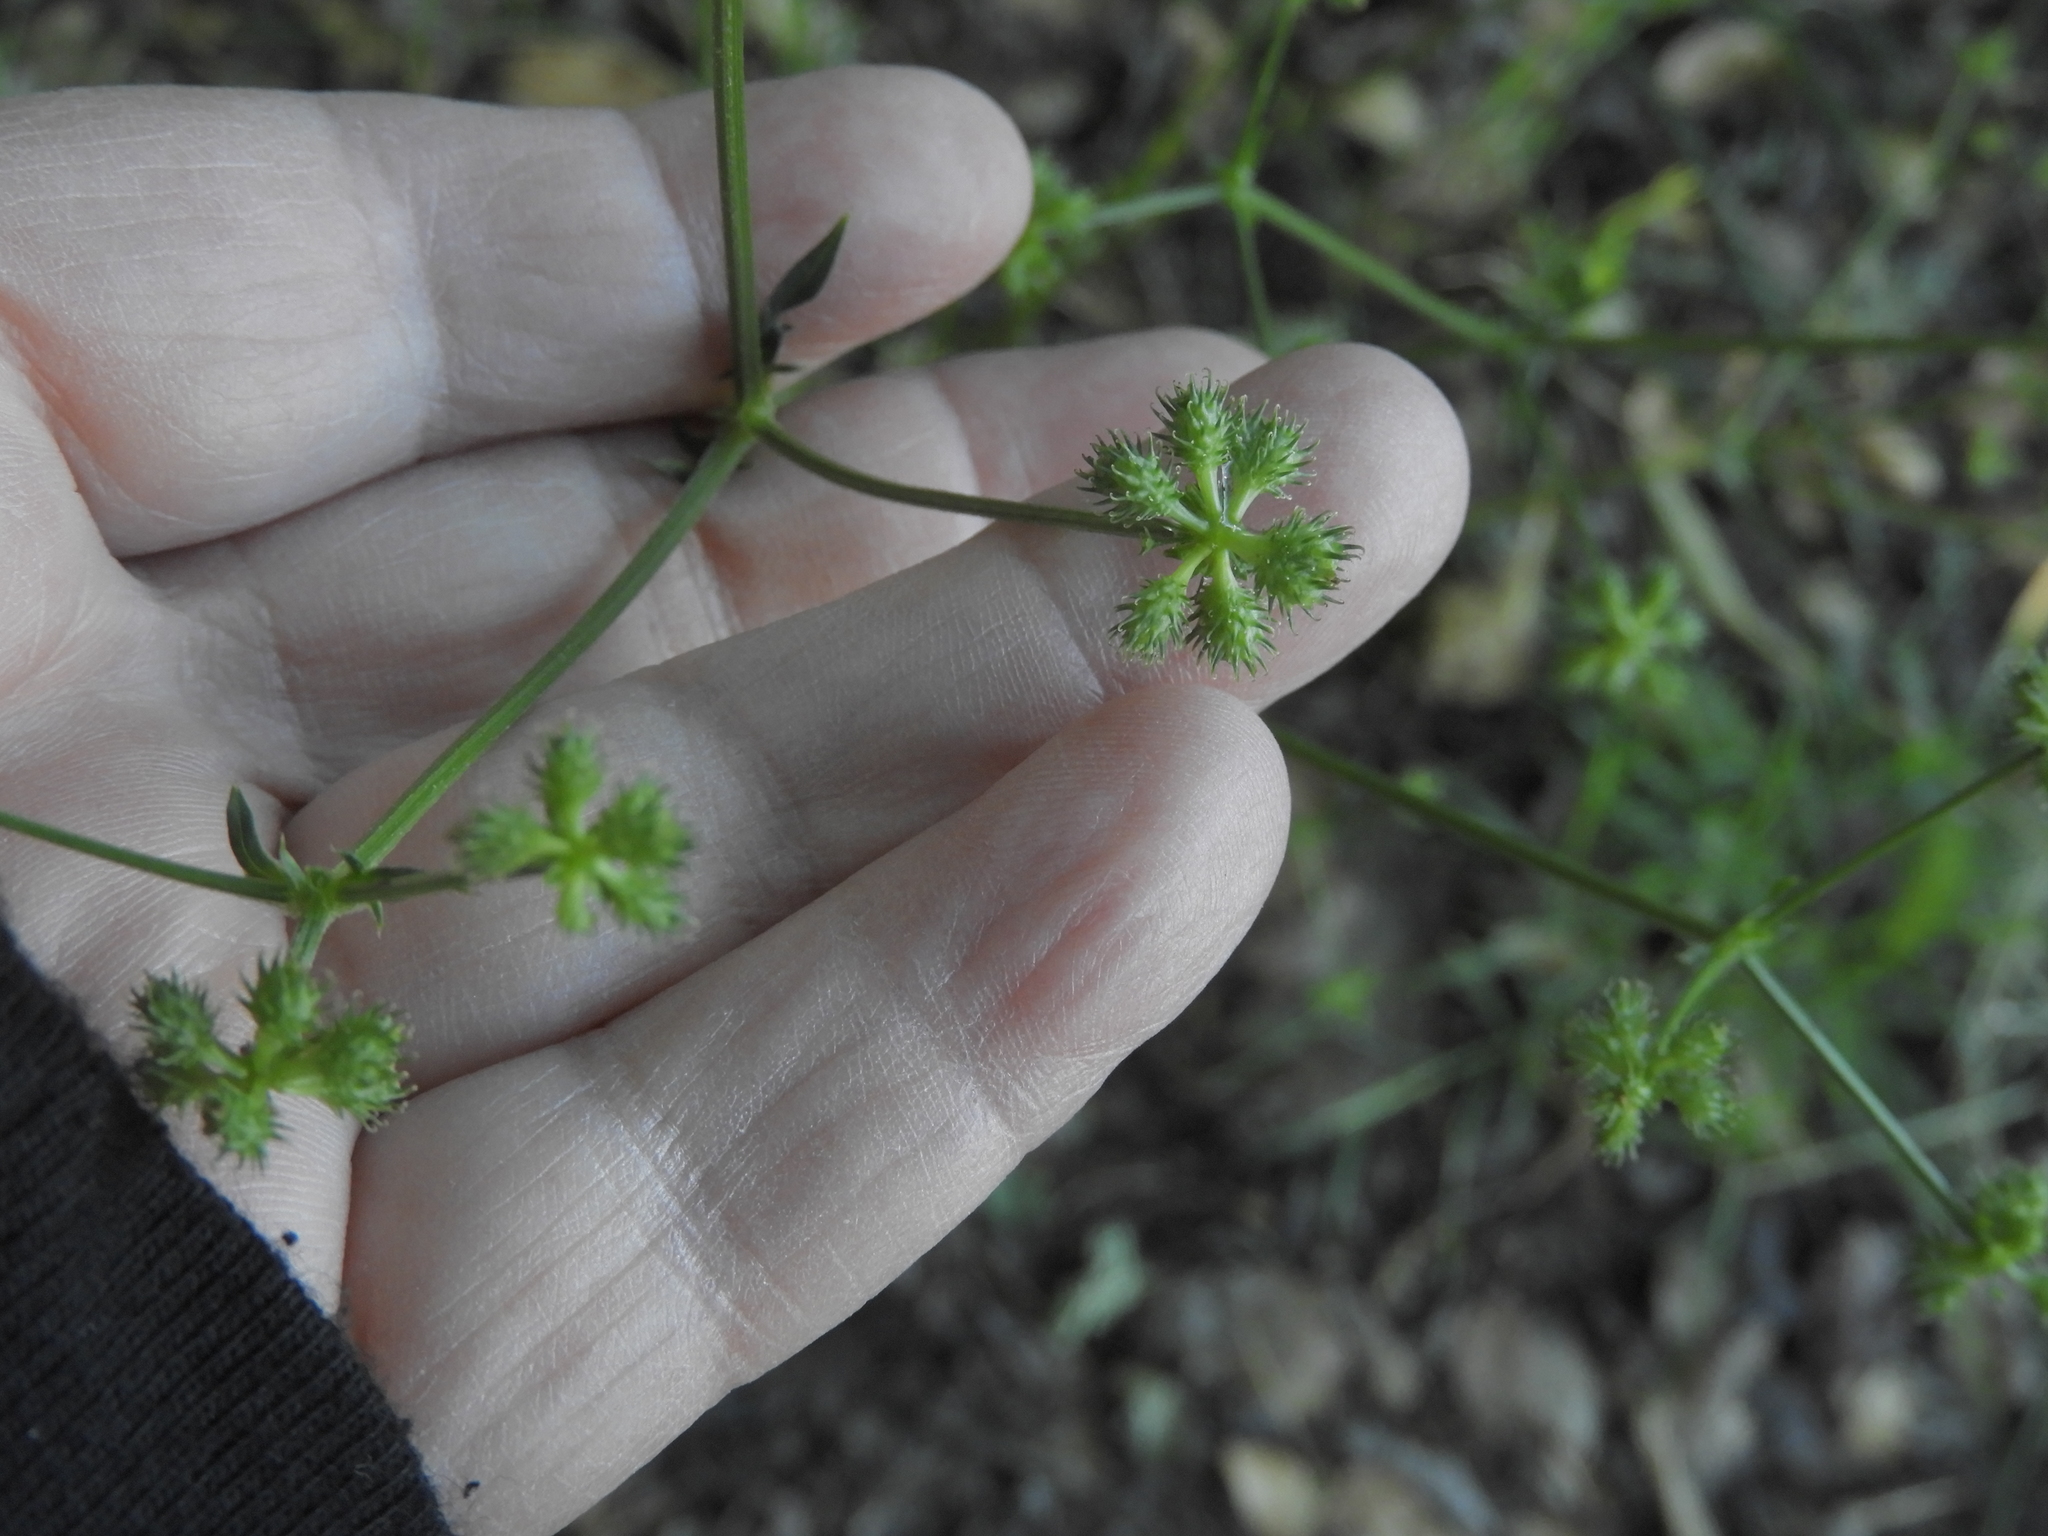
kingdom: Plantae
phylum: Tracheophyta
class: Magnoliopsida
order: Apiales
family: Apiaceae
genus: Sanicula
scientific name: Sanicula crassicaulis
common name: Western snakeroot
